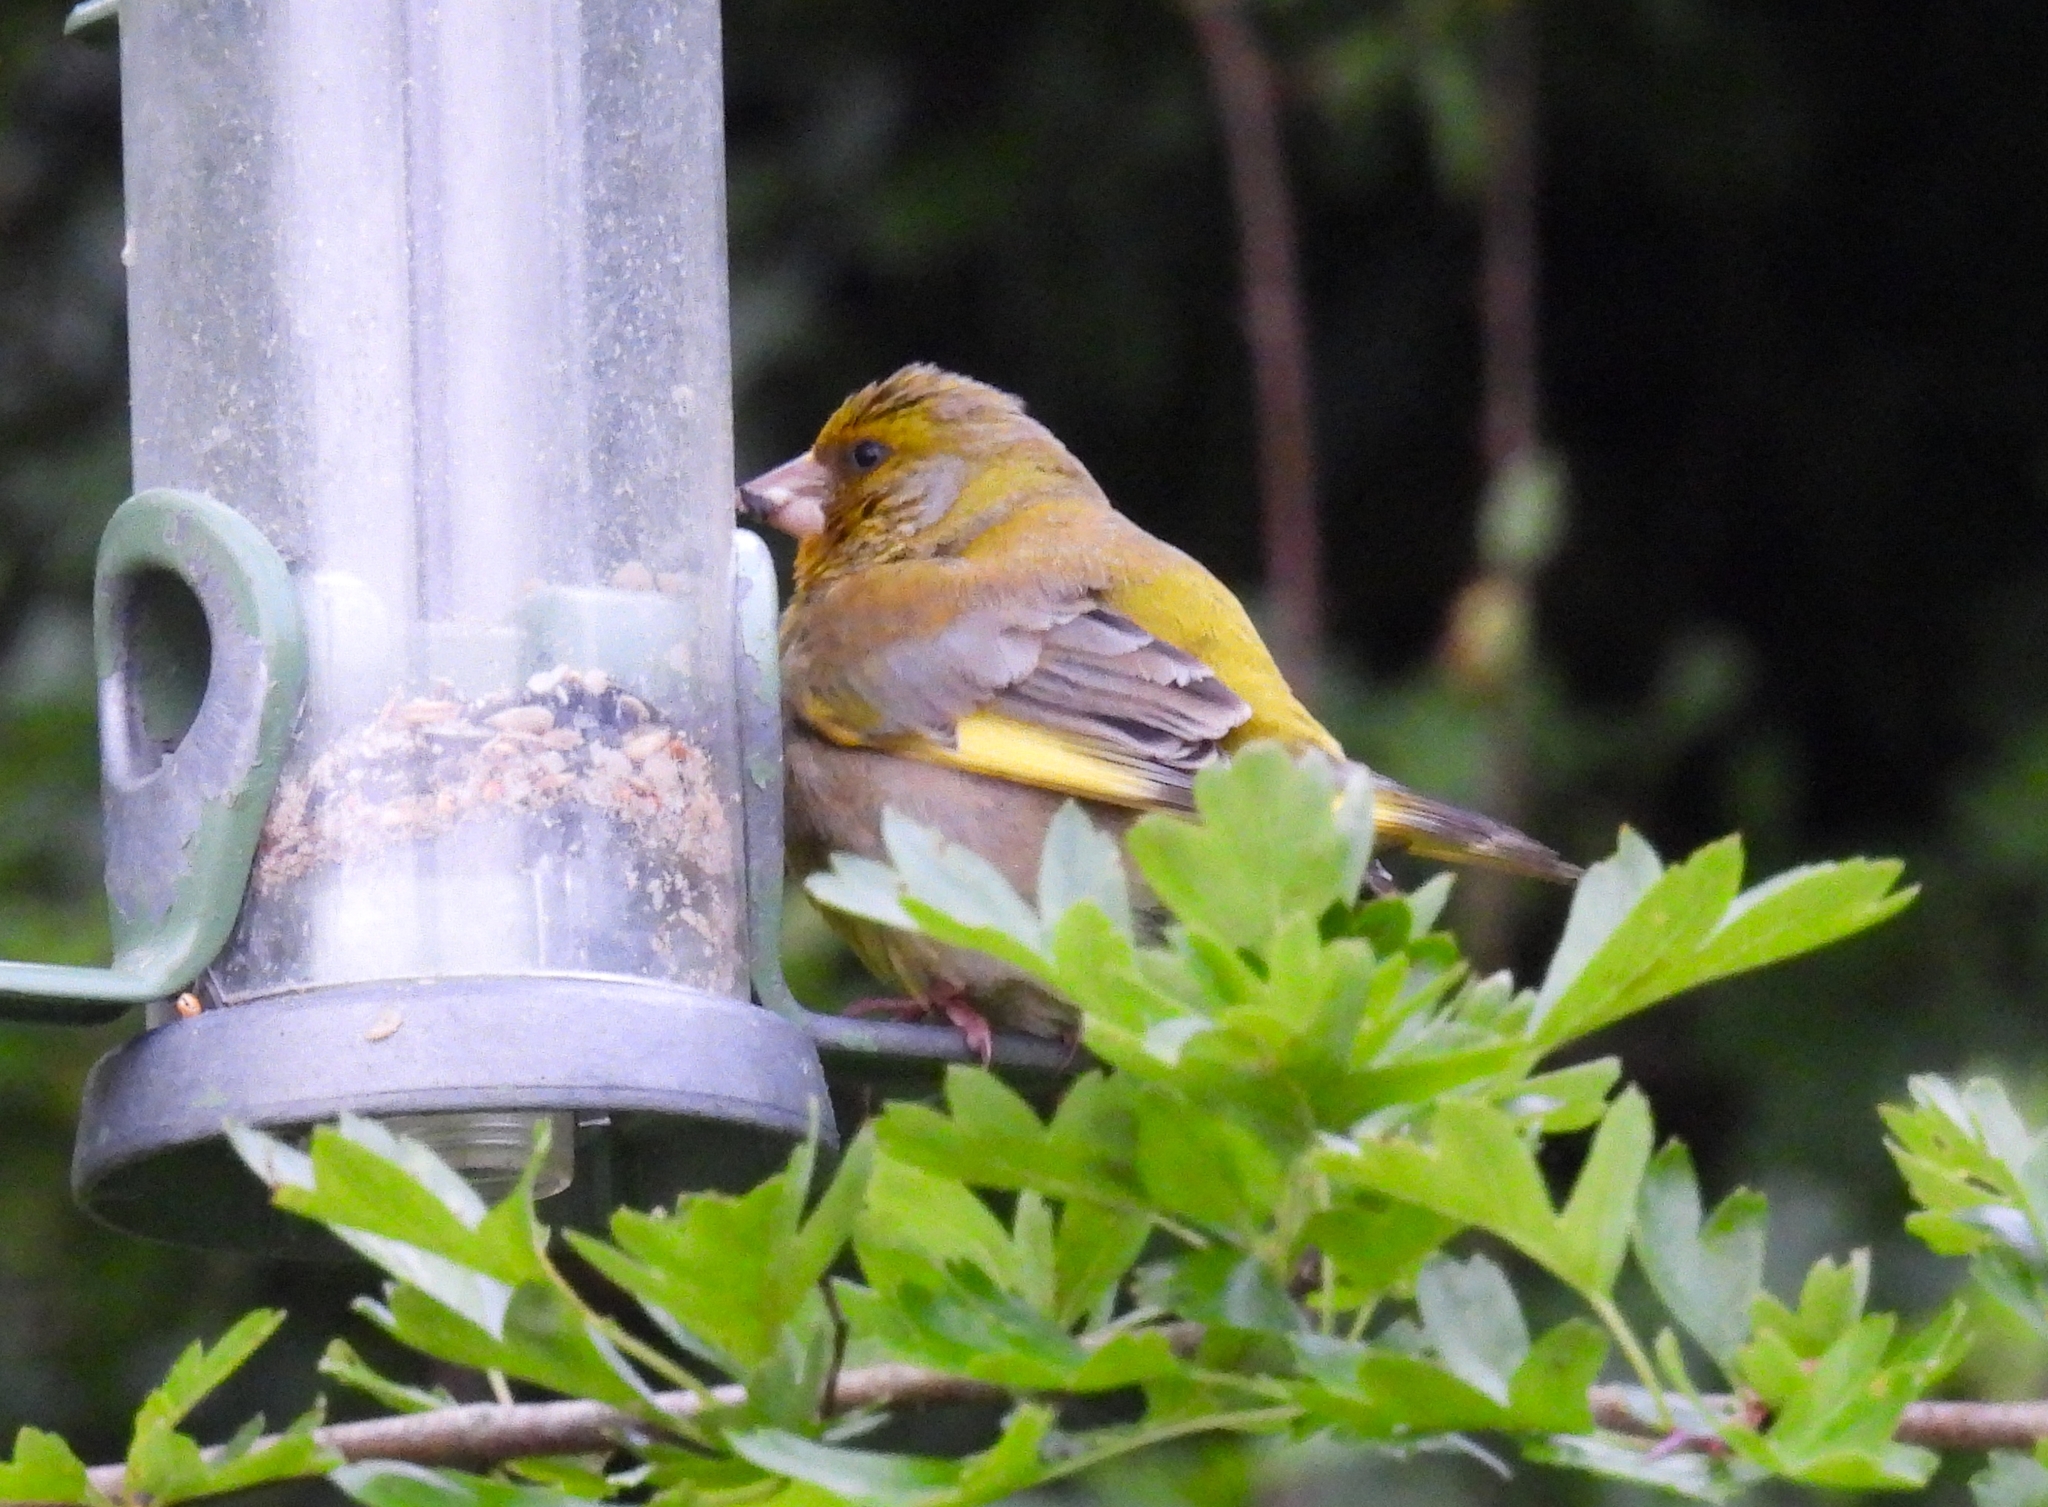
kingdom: Plantae
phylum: Tracheophyta
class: Liliopsida
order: Poales
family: Poaceae
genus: Chloris
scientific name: Chloris chloris
